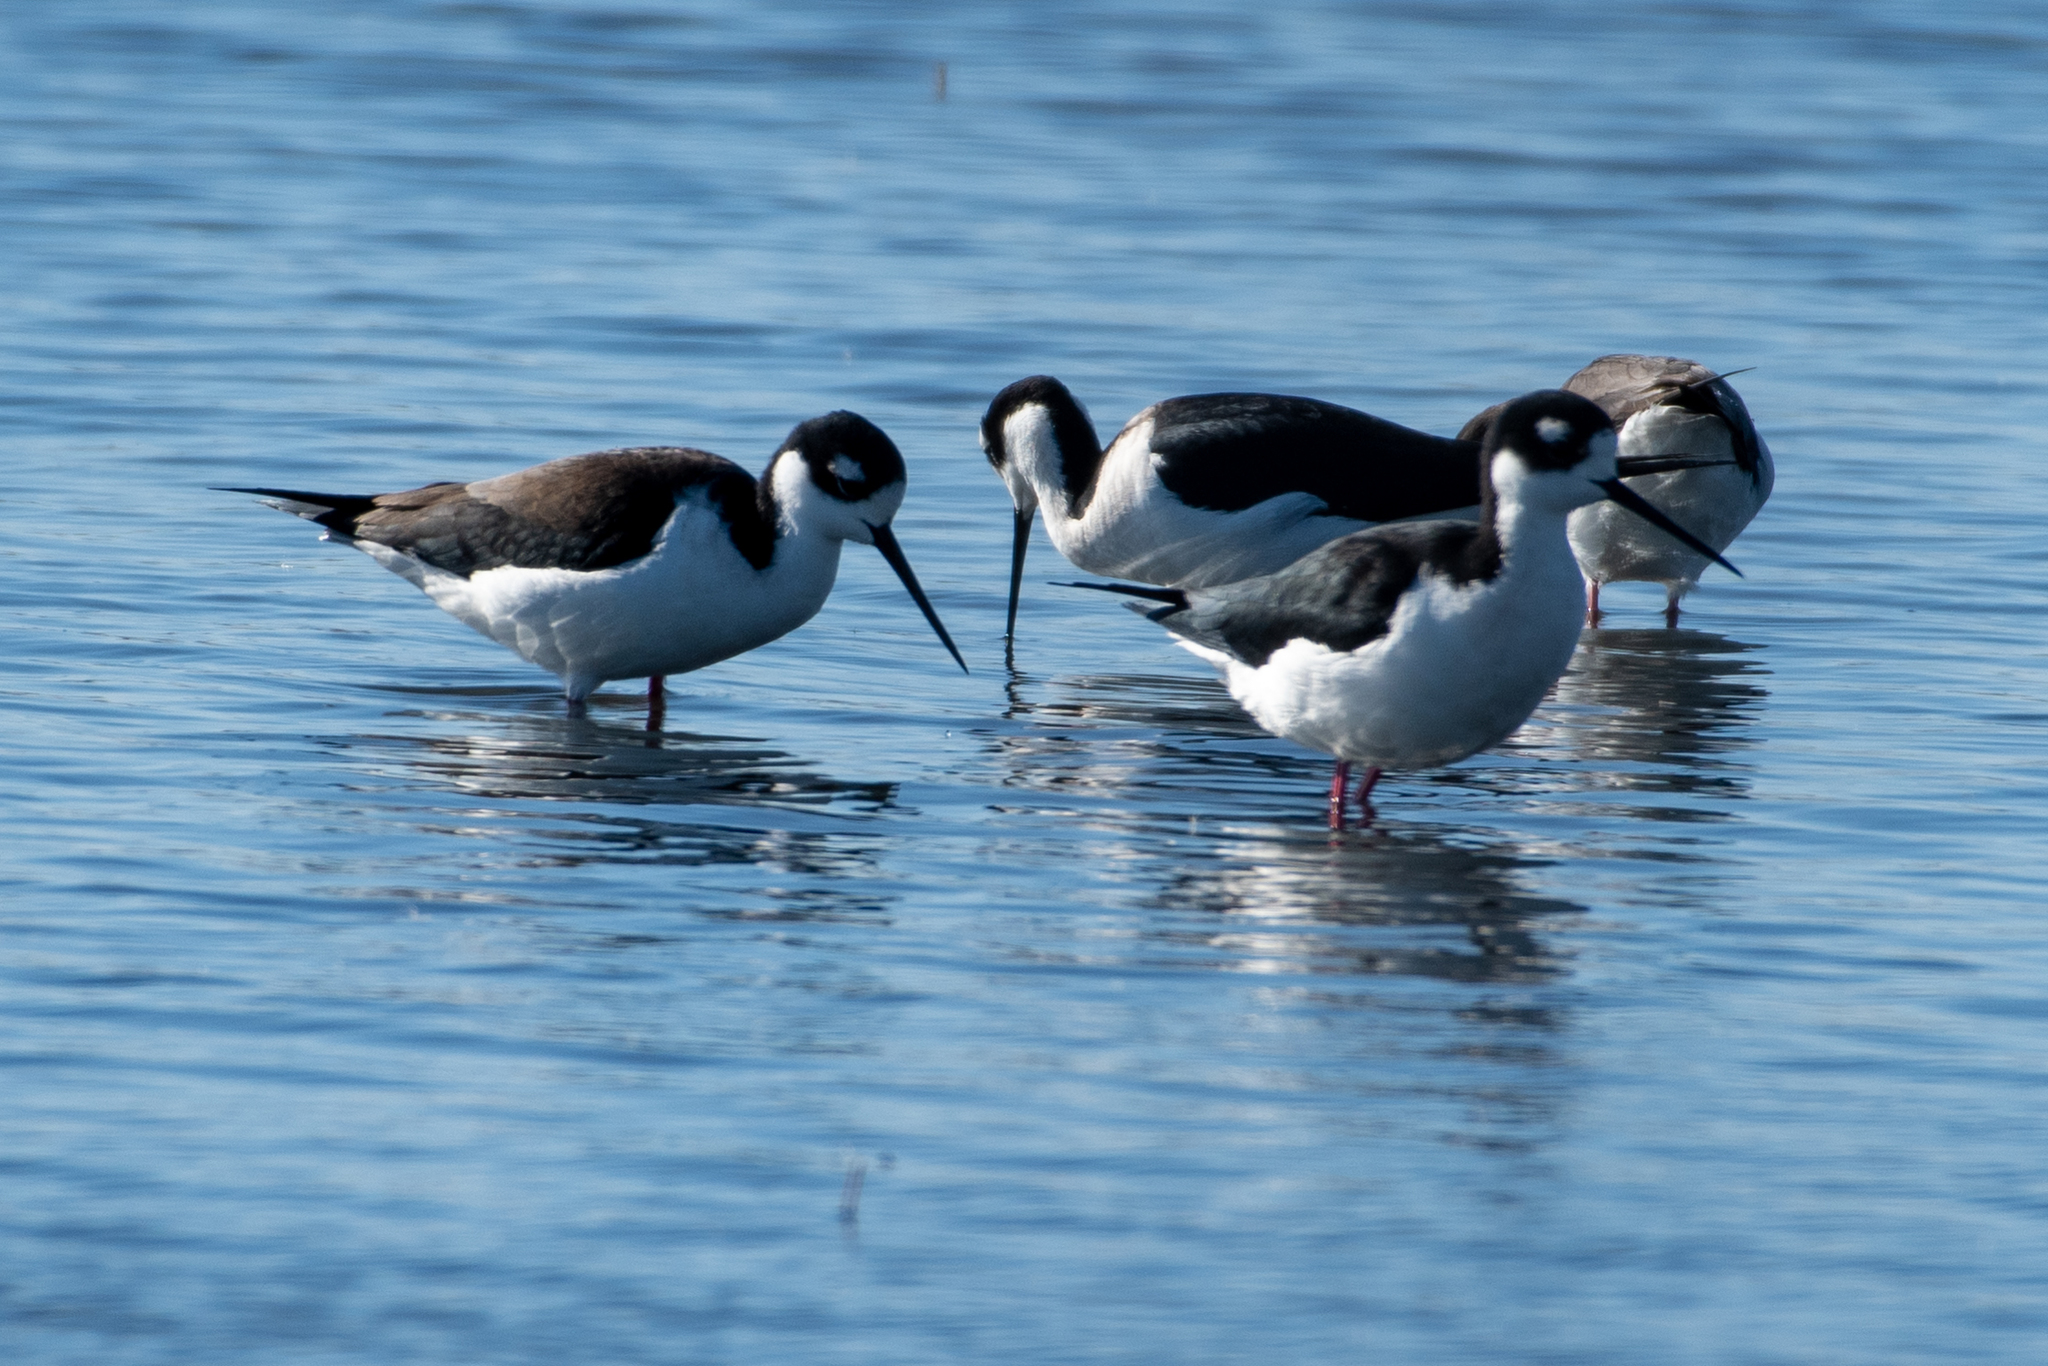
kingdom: Animalia
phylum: Chordata
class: Aves
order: Charadriiformes
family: Recurvirostridae
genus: Himantopus
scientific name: Himantopus mexicanus
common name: Black-necked stilt
